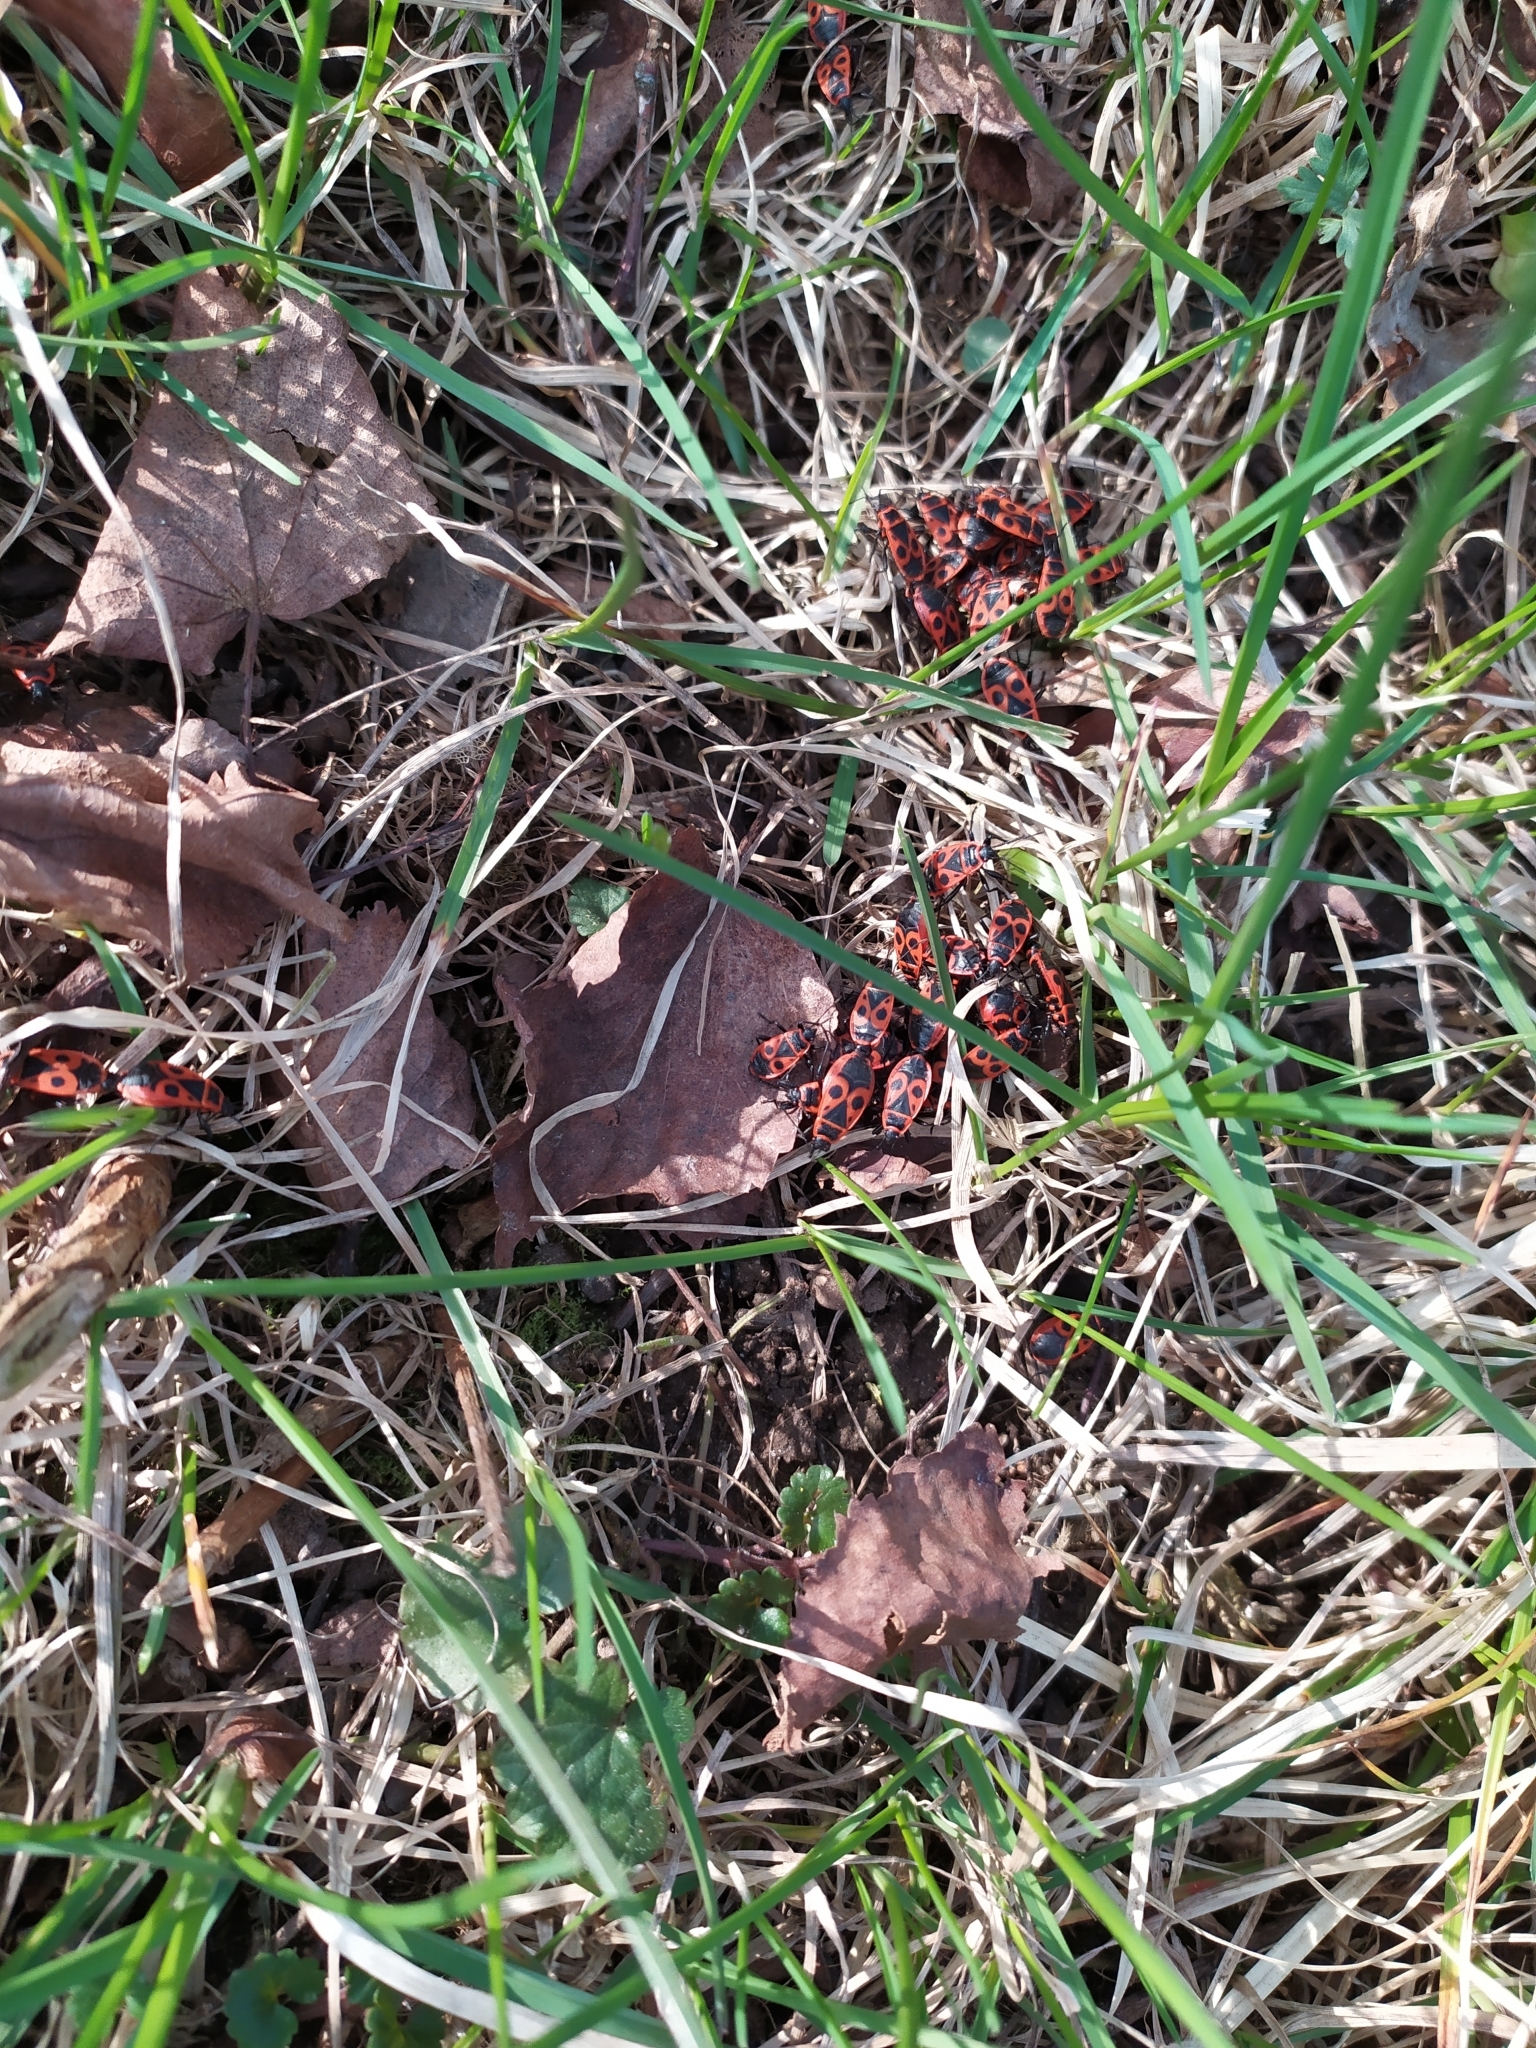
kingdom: Animalia
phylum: Arthropoda
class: Insecta
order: Hemiptera
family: Pyrrhocoridae
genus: Pyrrhocoris
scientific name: Pyrrhocoris apterus
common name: Firebug
